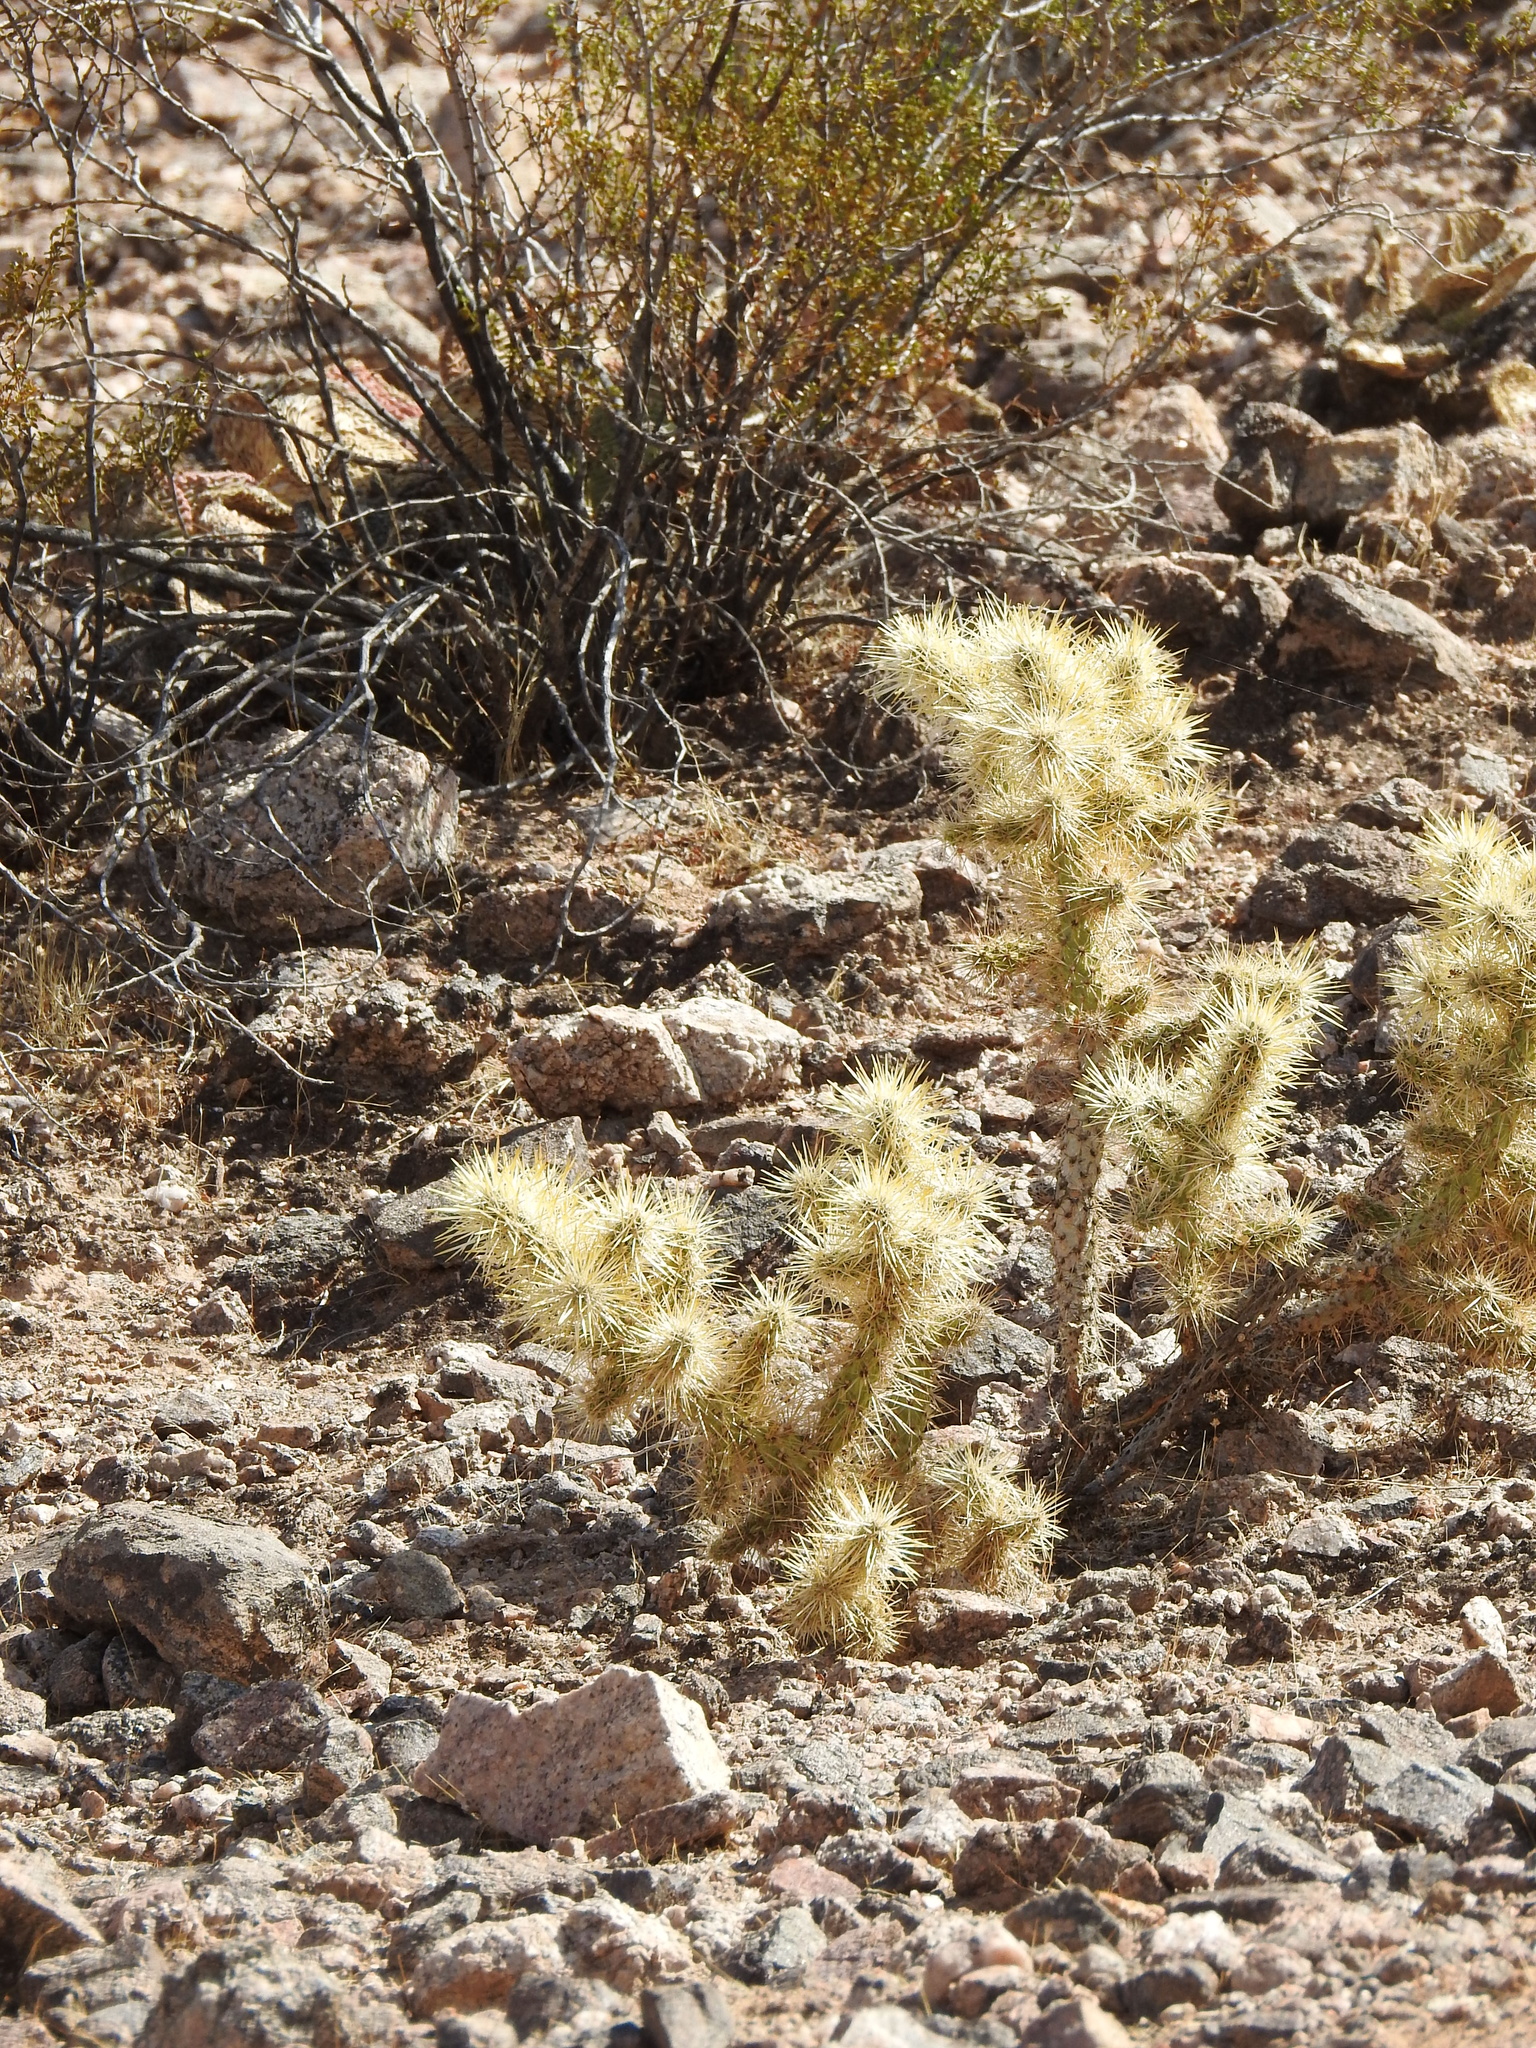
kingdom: Plantae
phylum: Tracheophyta
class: Magnoliopsida
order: Caryophyllales
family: Cactaceae
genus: Cylindropuntia
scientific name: Cylindropuntia echinocarpa
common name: Ground cholla
